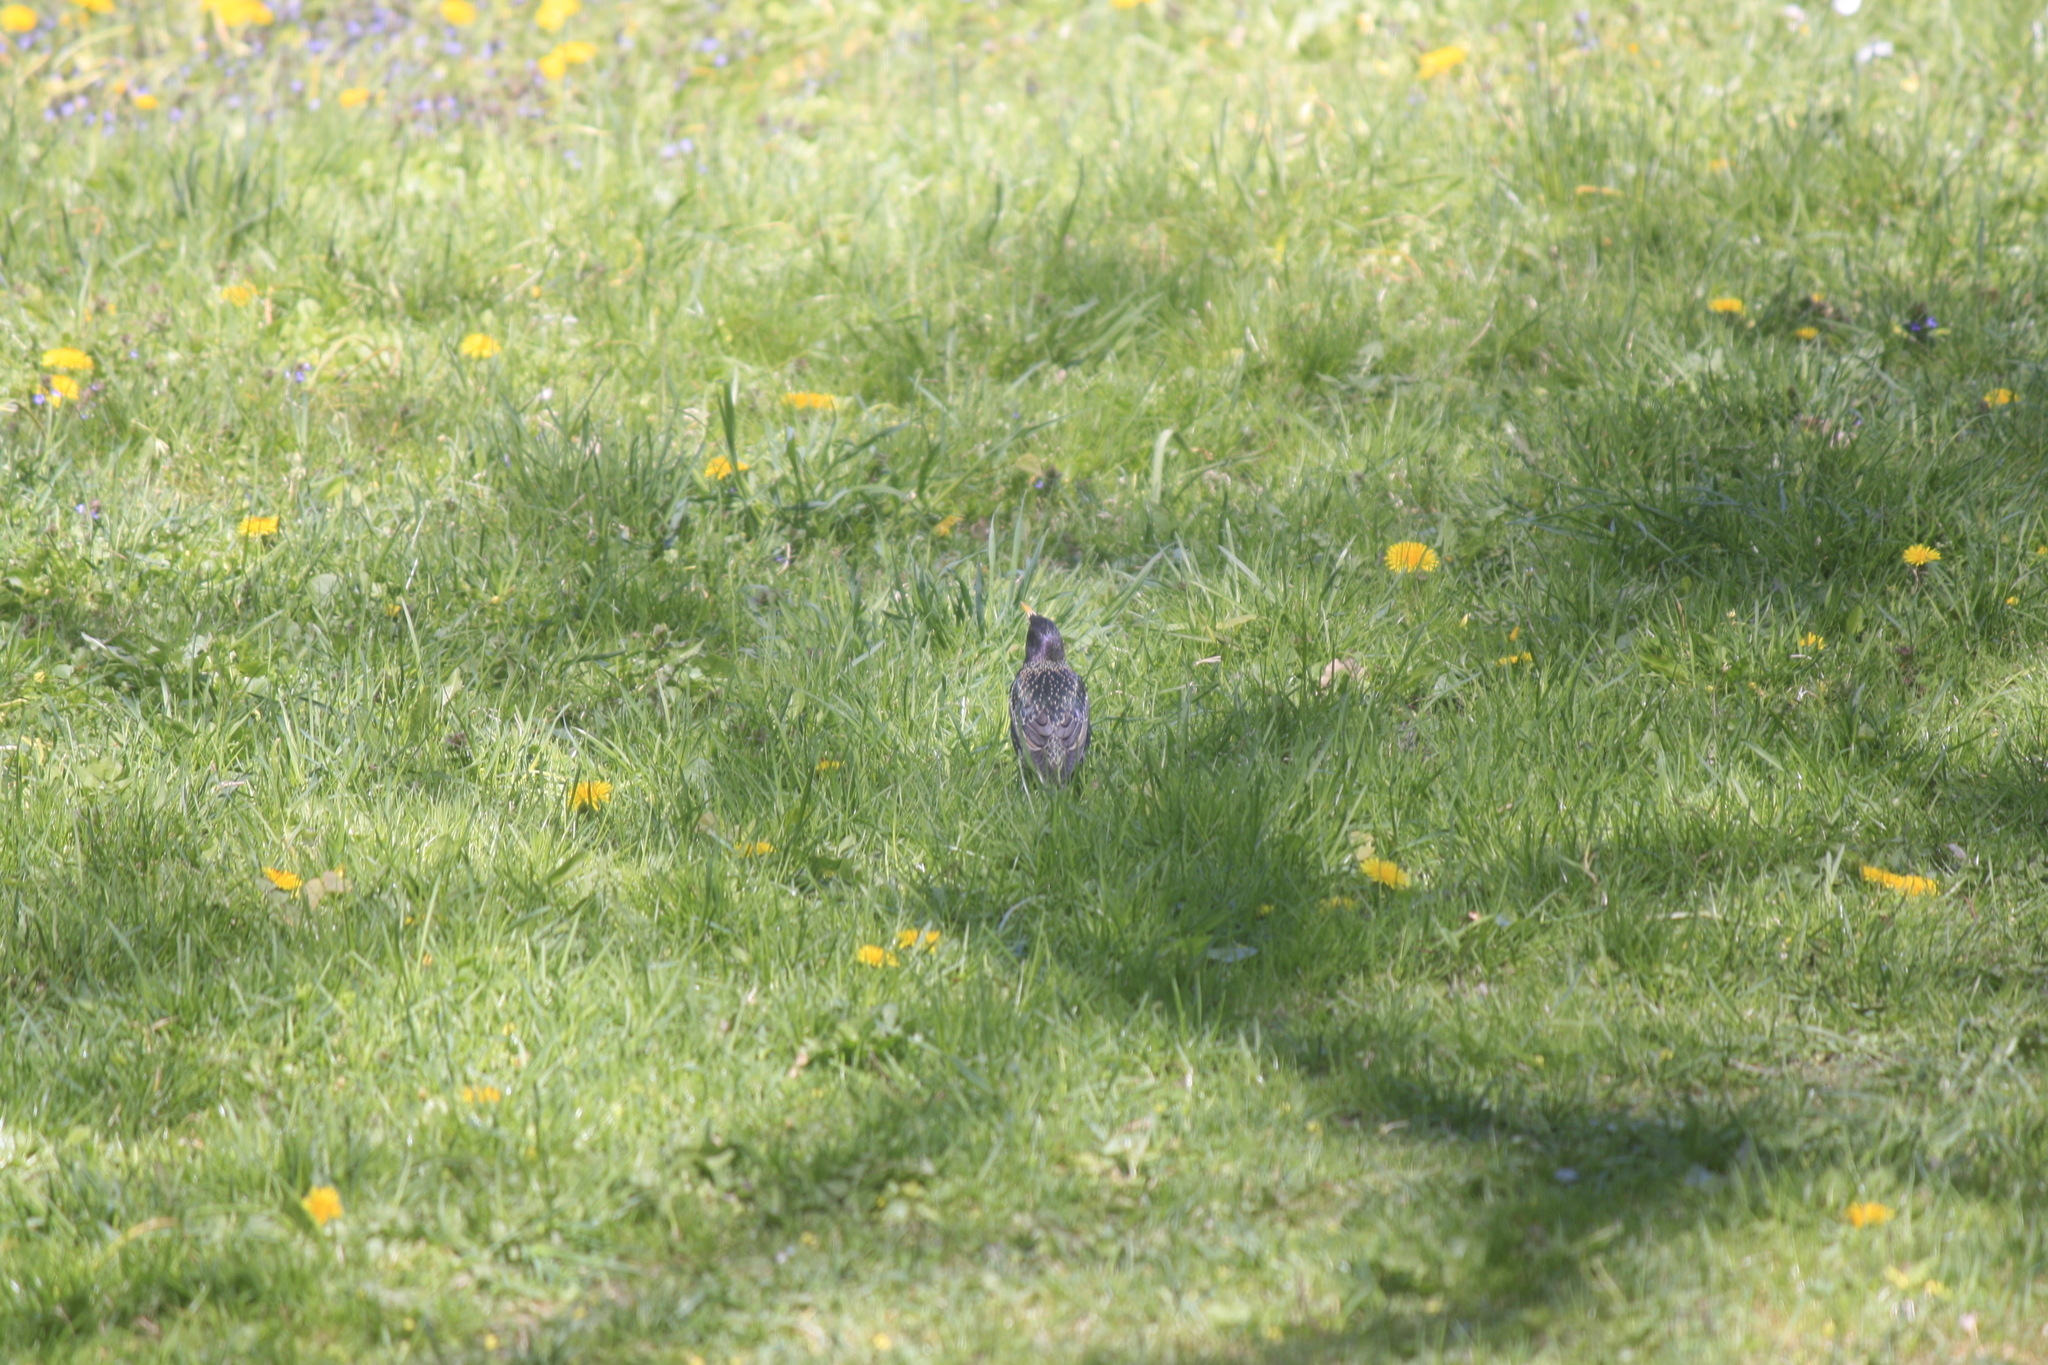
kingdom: Animalia
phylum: Chordata
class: Aves
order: Passeriformes
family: Sturnidae
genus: Sturnus
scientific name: Sturnus vulgaris
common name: Common starling
